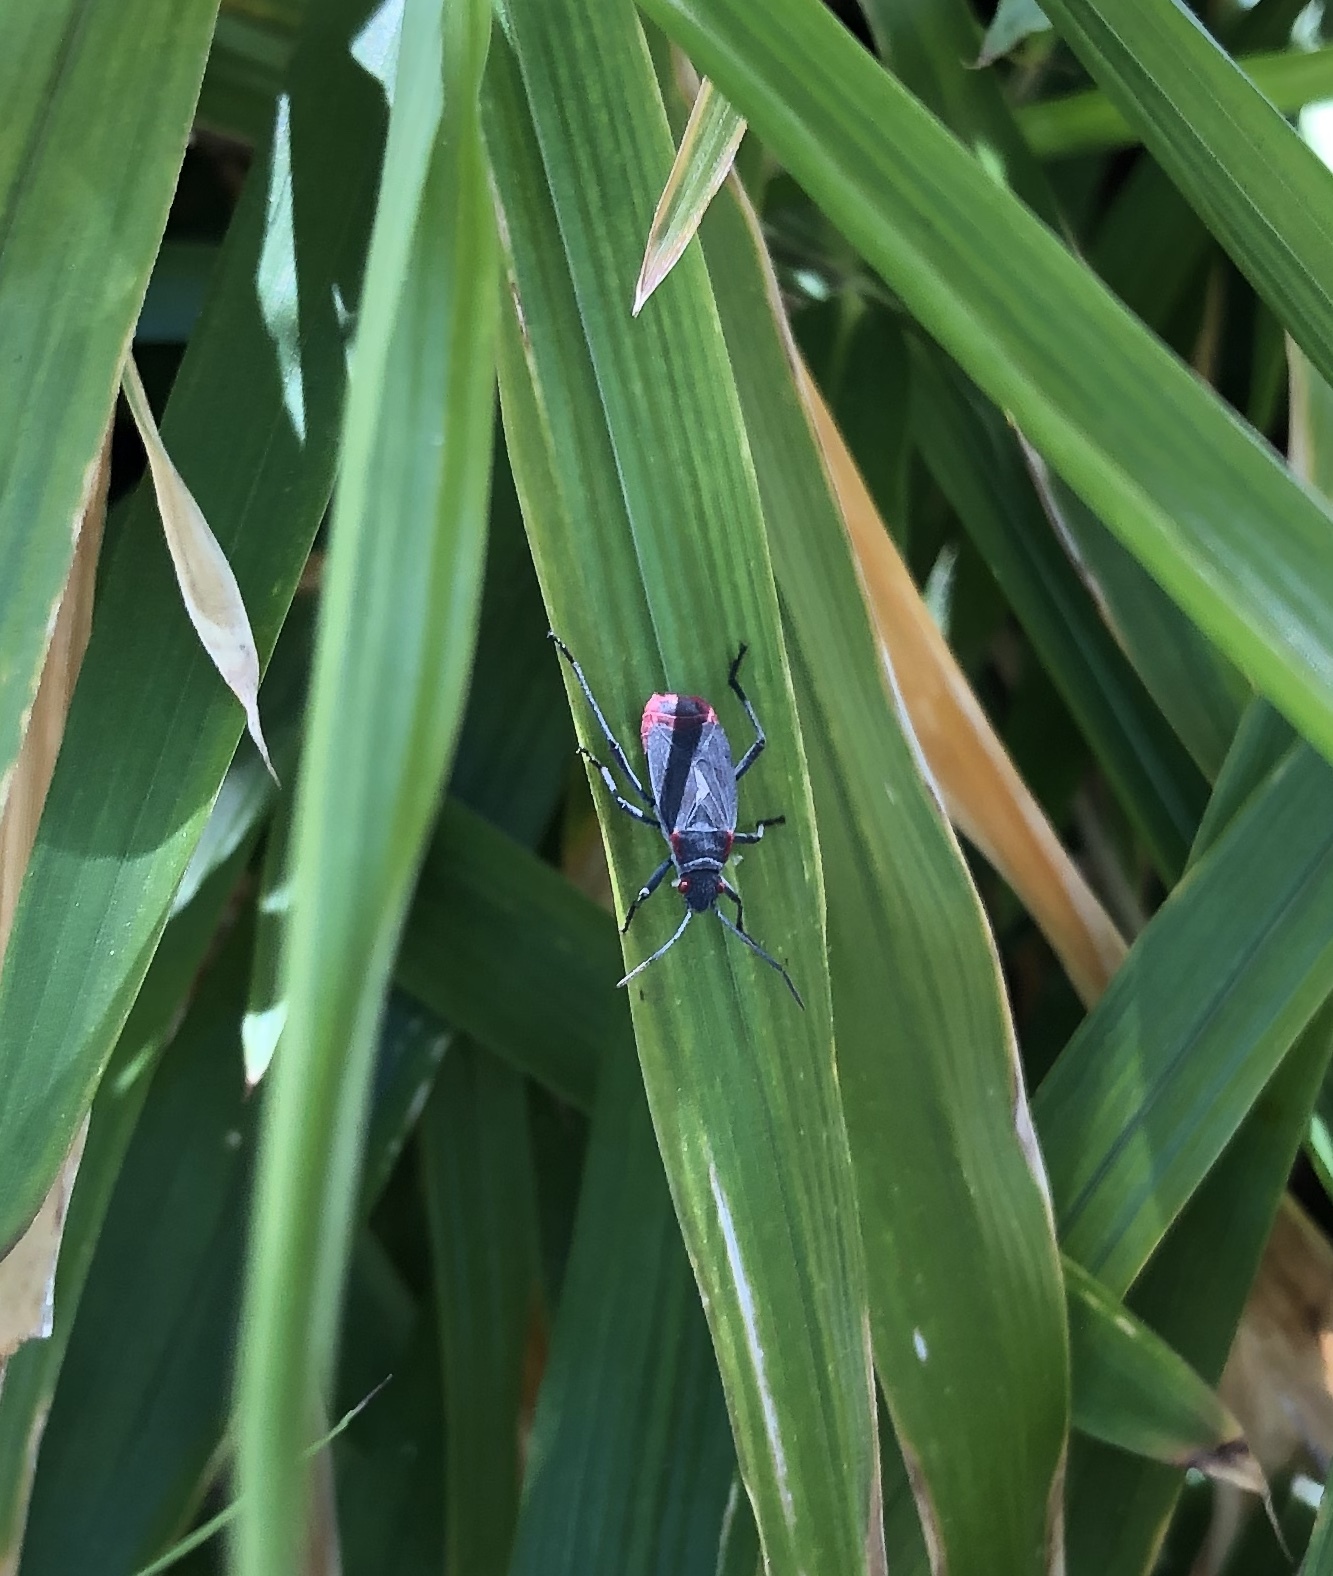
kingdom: Animalia
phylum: Arthropoda
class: Insecta
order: Hemiptera
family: Rhopalidae
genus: Jadera
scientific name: Jadera haematoloma
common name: Red-shouldered bug
